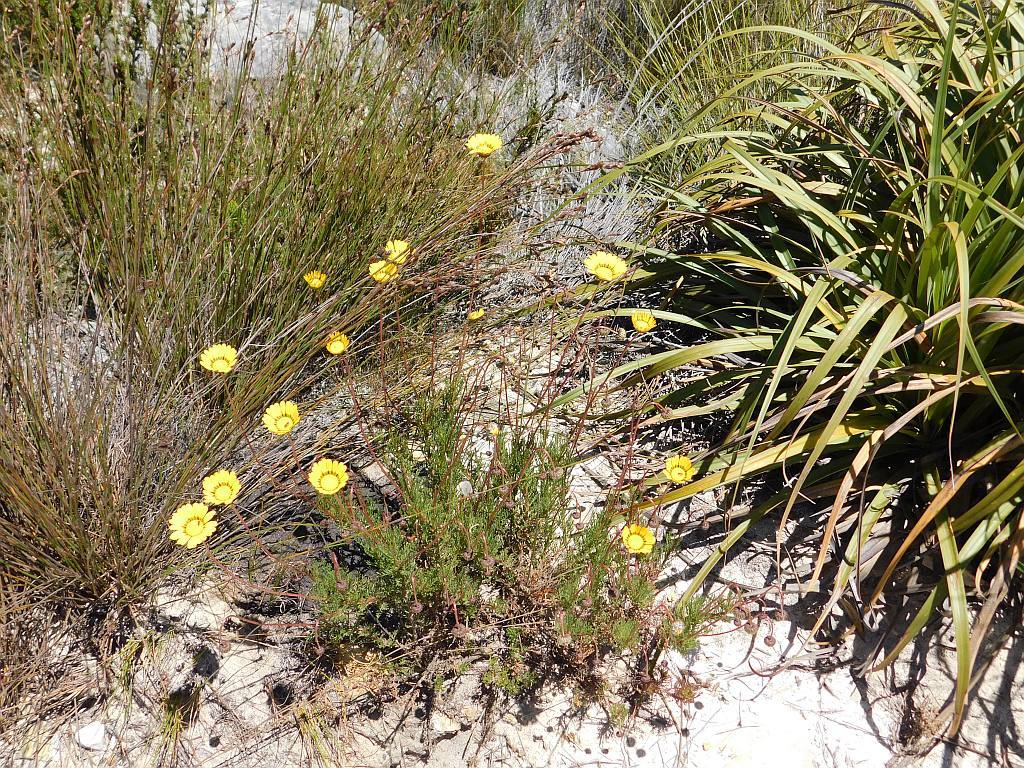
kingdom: Plantae
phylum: Tracheophyta
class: Magnoliopsida
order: Asterales
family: Asteraceae
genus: Ursinia
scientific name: Ursinia paleacea
